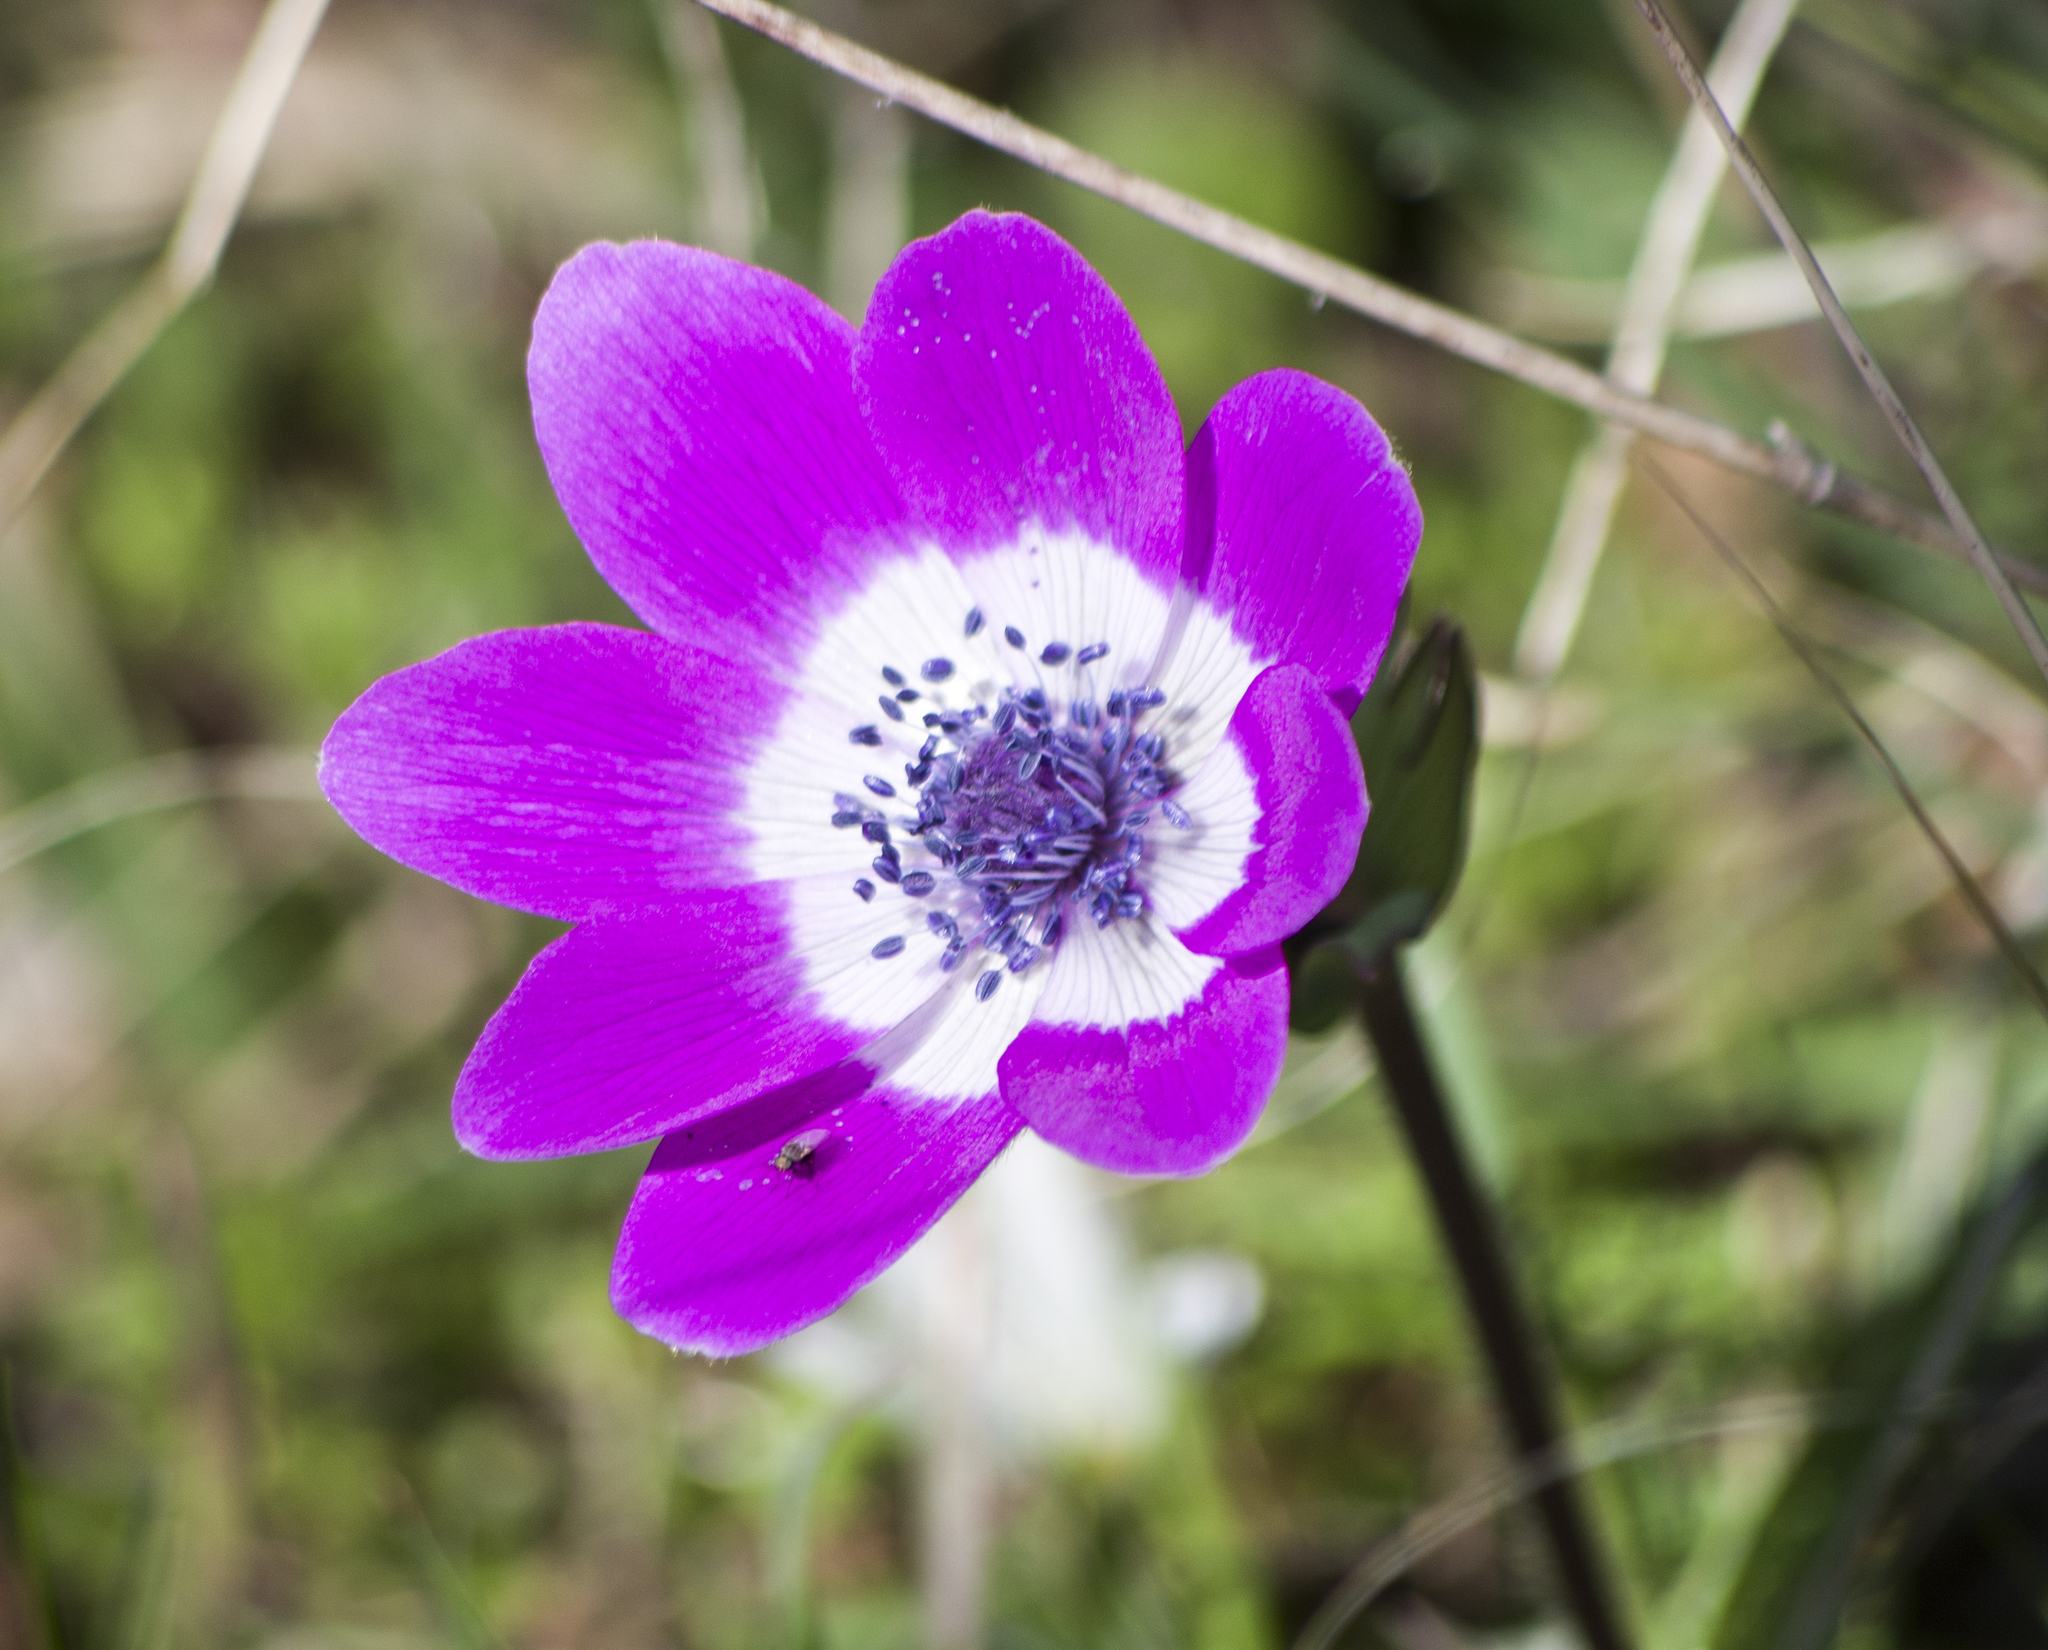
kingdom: Plantae
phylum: Tracheophyta
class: Magnoliopsida
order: Ranunculales
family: Ranunculaceae
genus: Anemone
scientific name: Anemone pavonina
